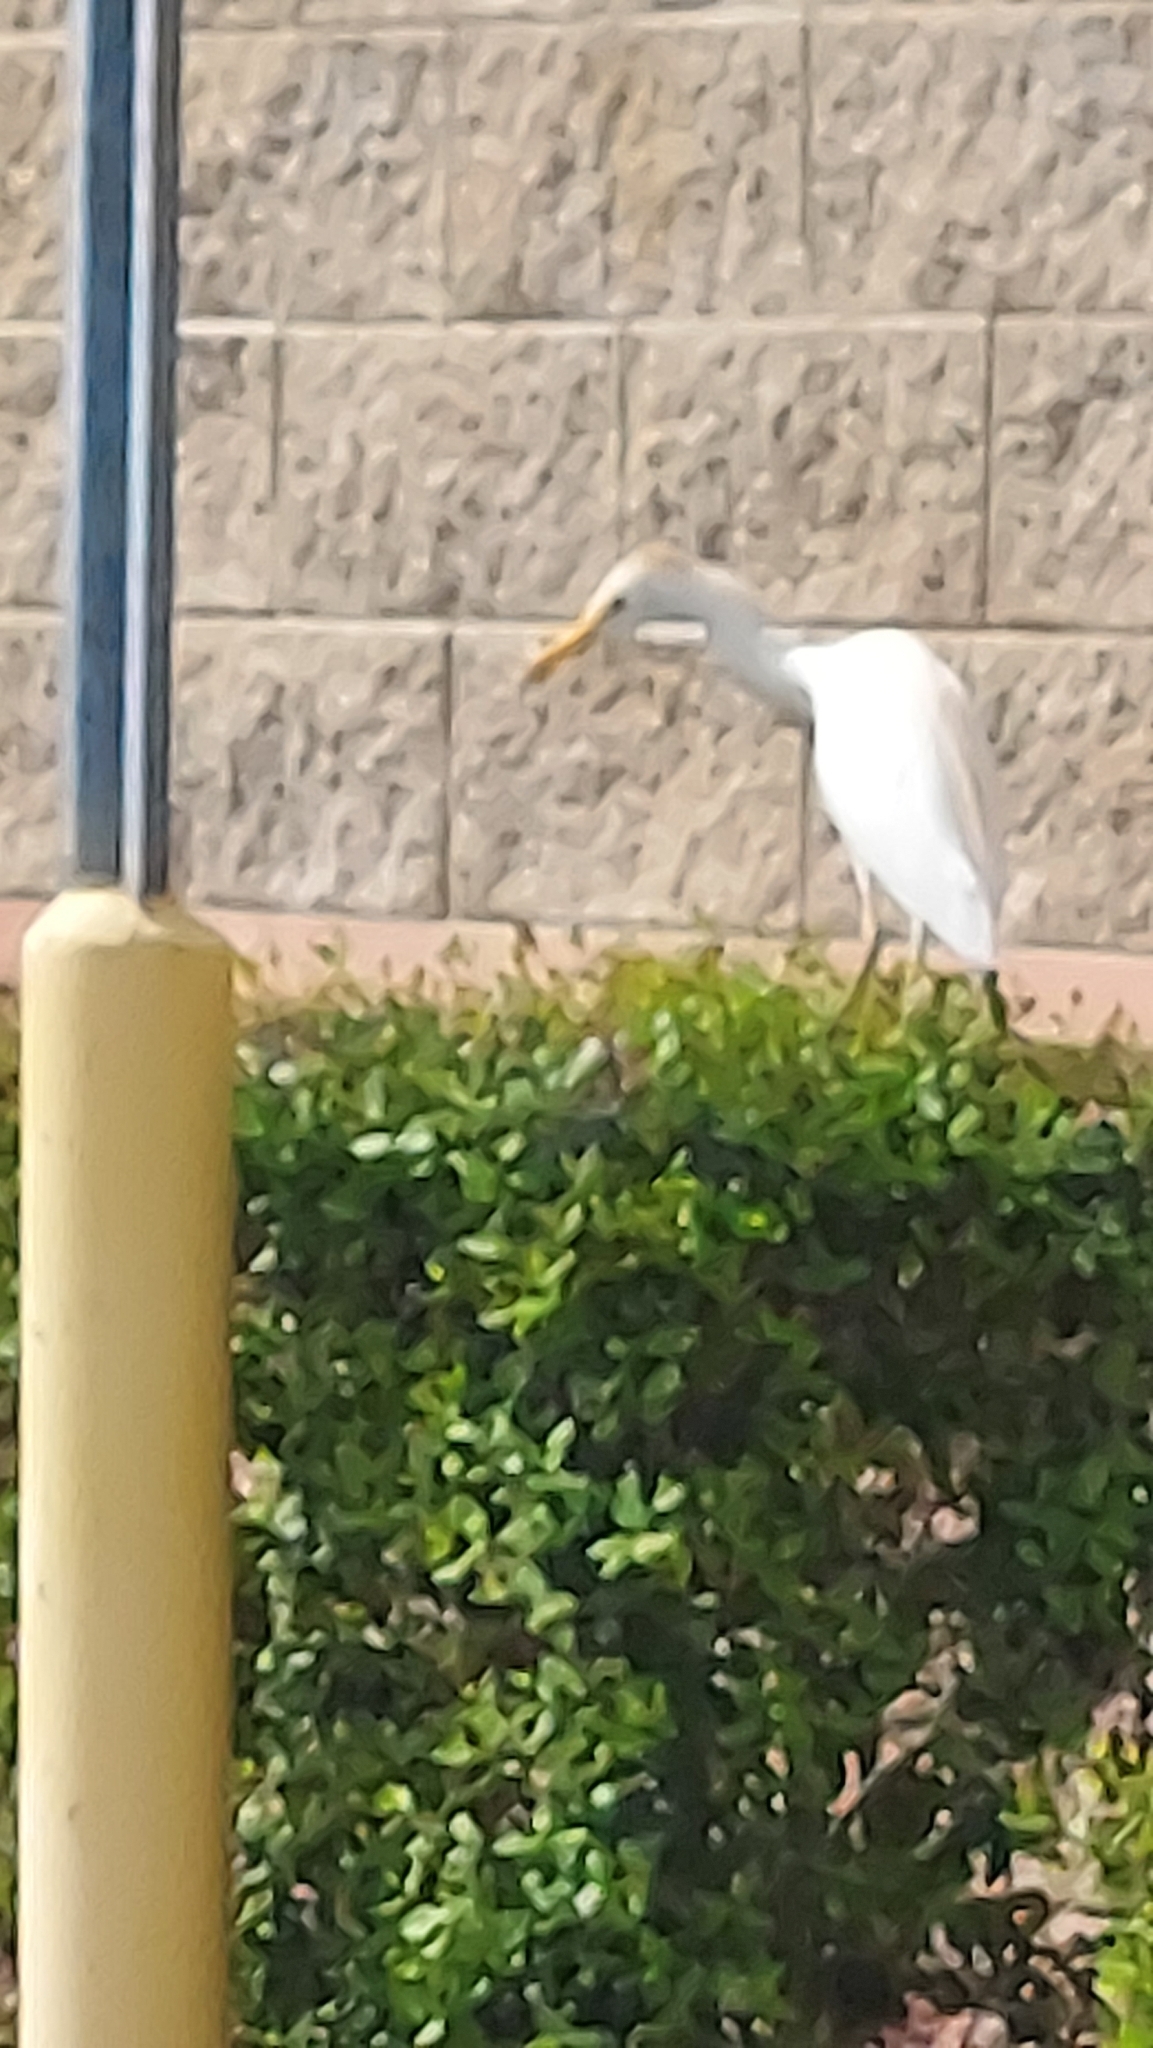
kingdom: Animalia
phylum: Chordata
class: Aves
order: Pelecaniformes
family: Ardeidae
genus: Bubulcus
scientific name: Bubulcus ibis
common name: Cattle egret
